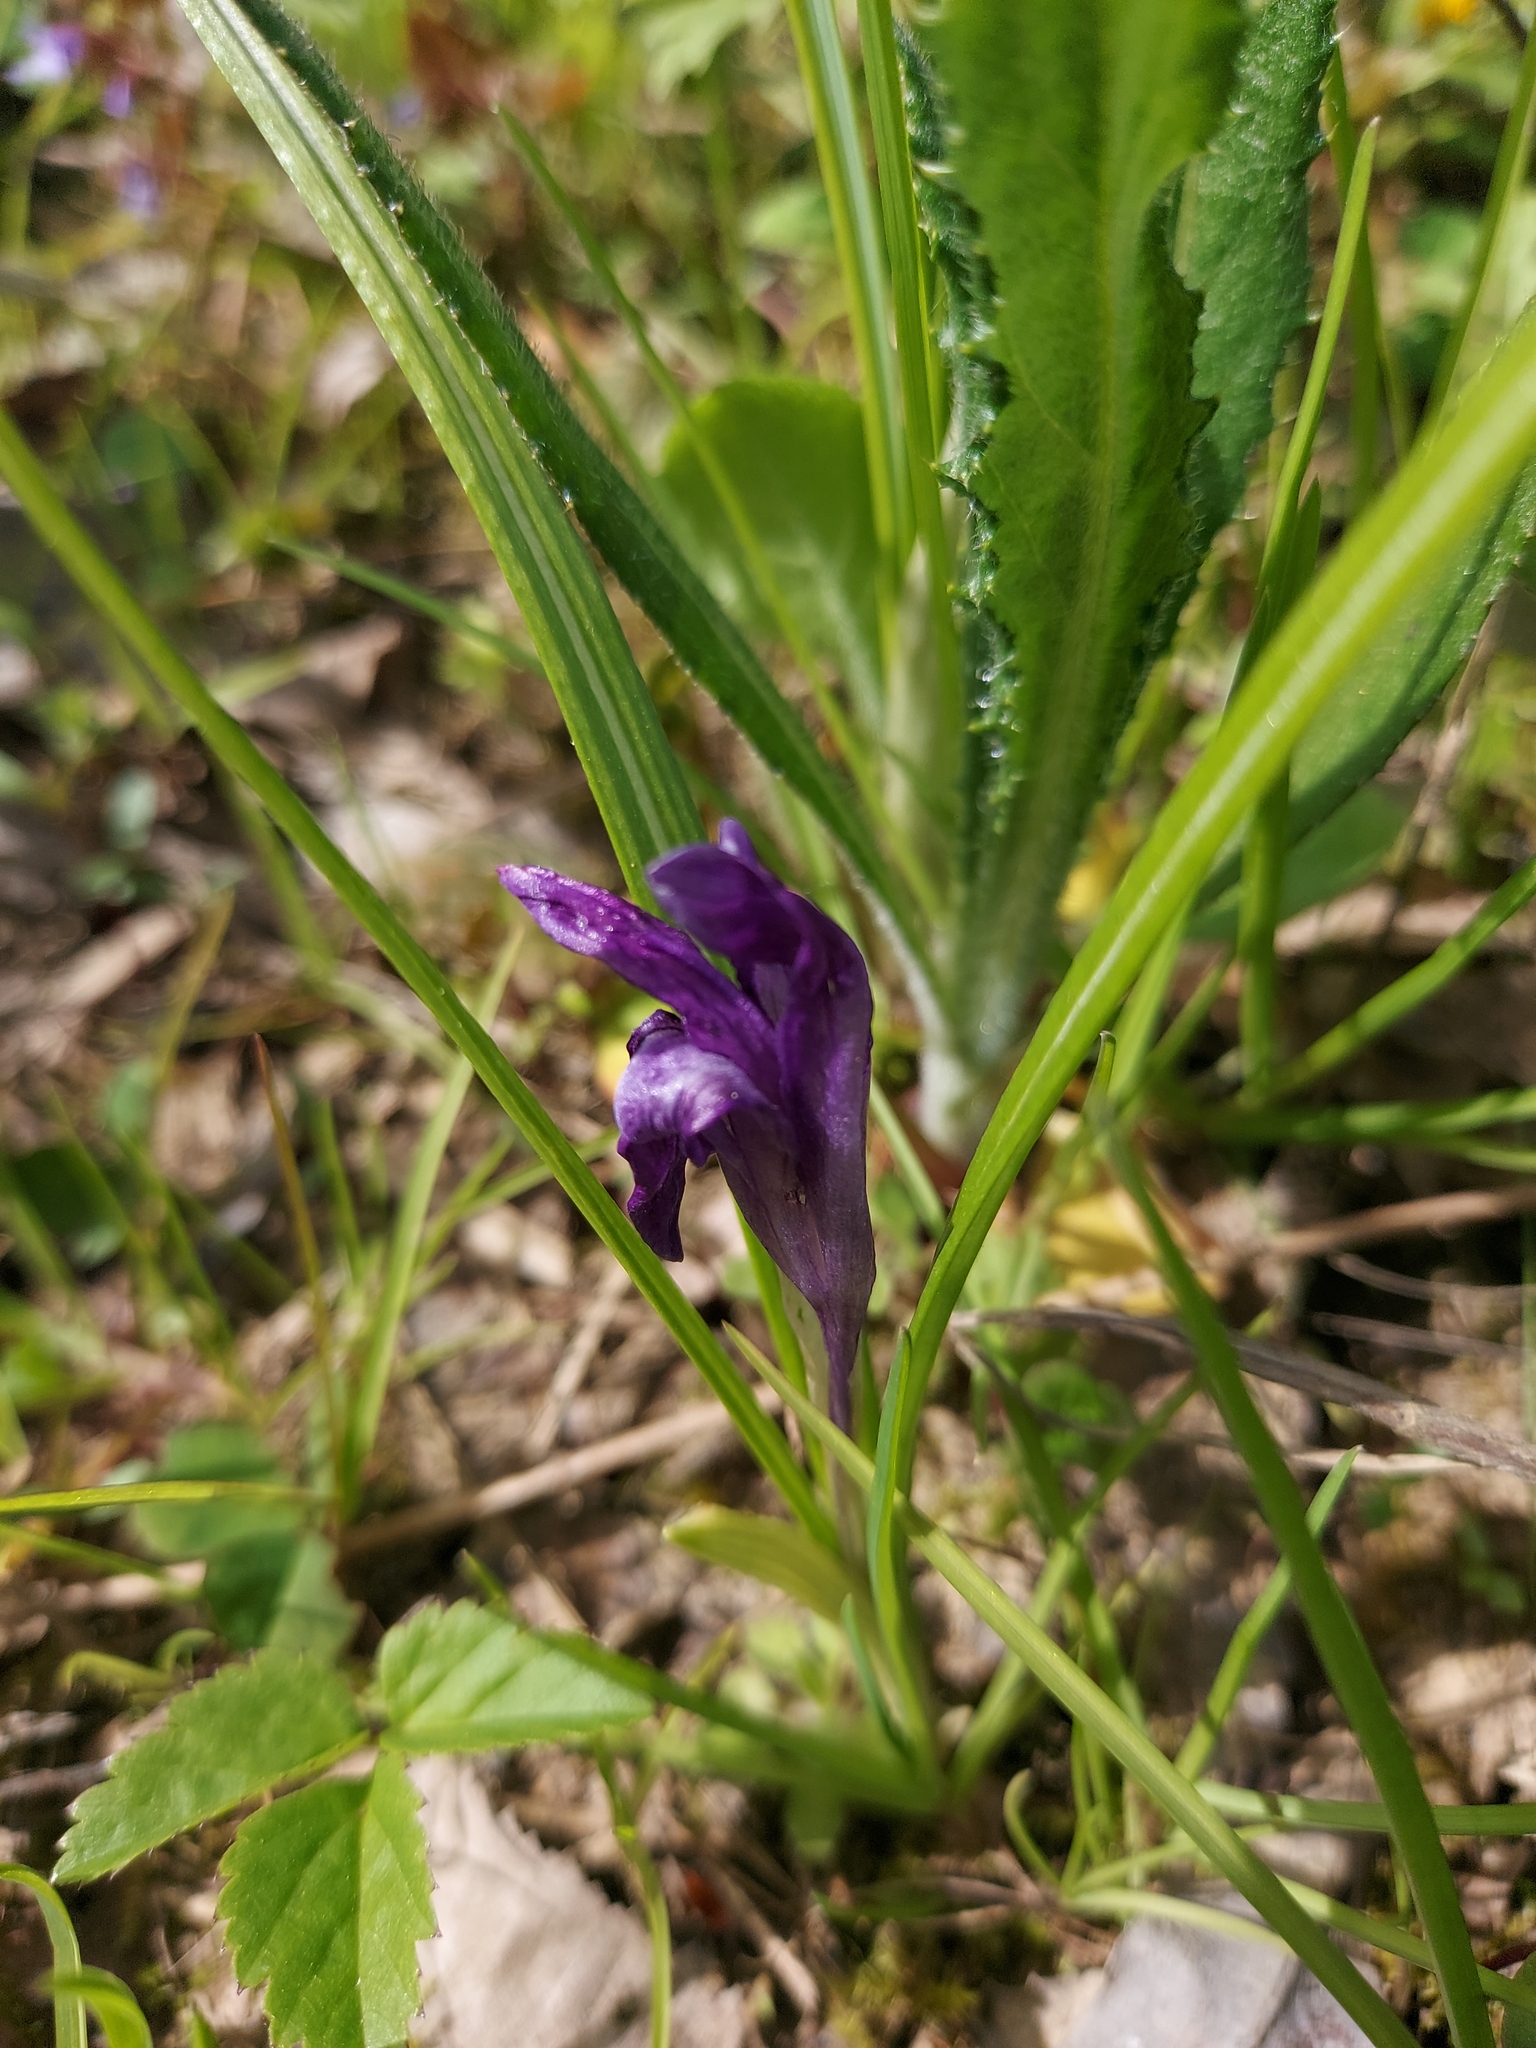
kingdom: Plantae
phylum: Tracheophyta
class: Liliopsida
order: Asparagales
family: Iridaceae
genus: Crocus
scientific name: Crocus heuffelianus
